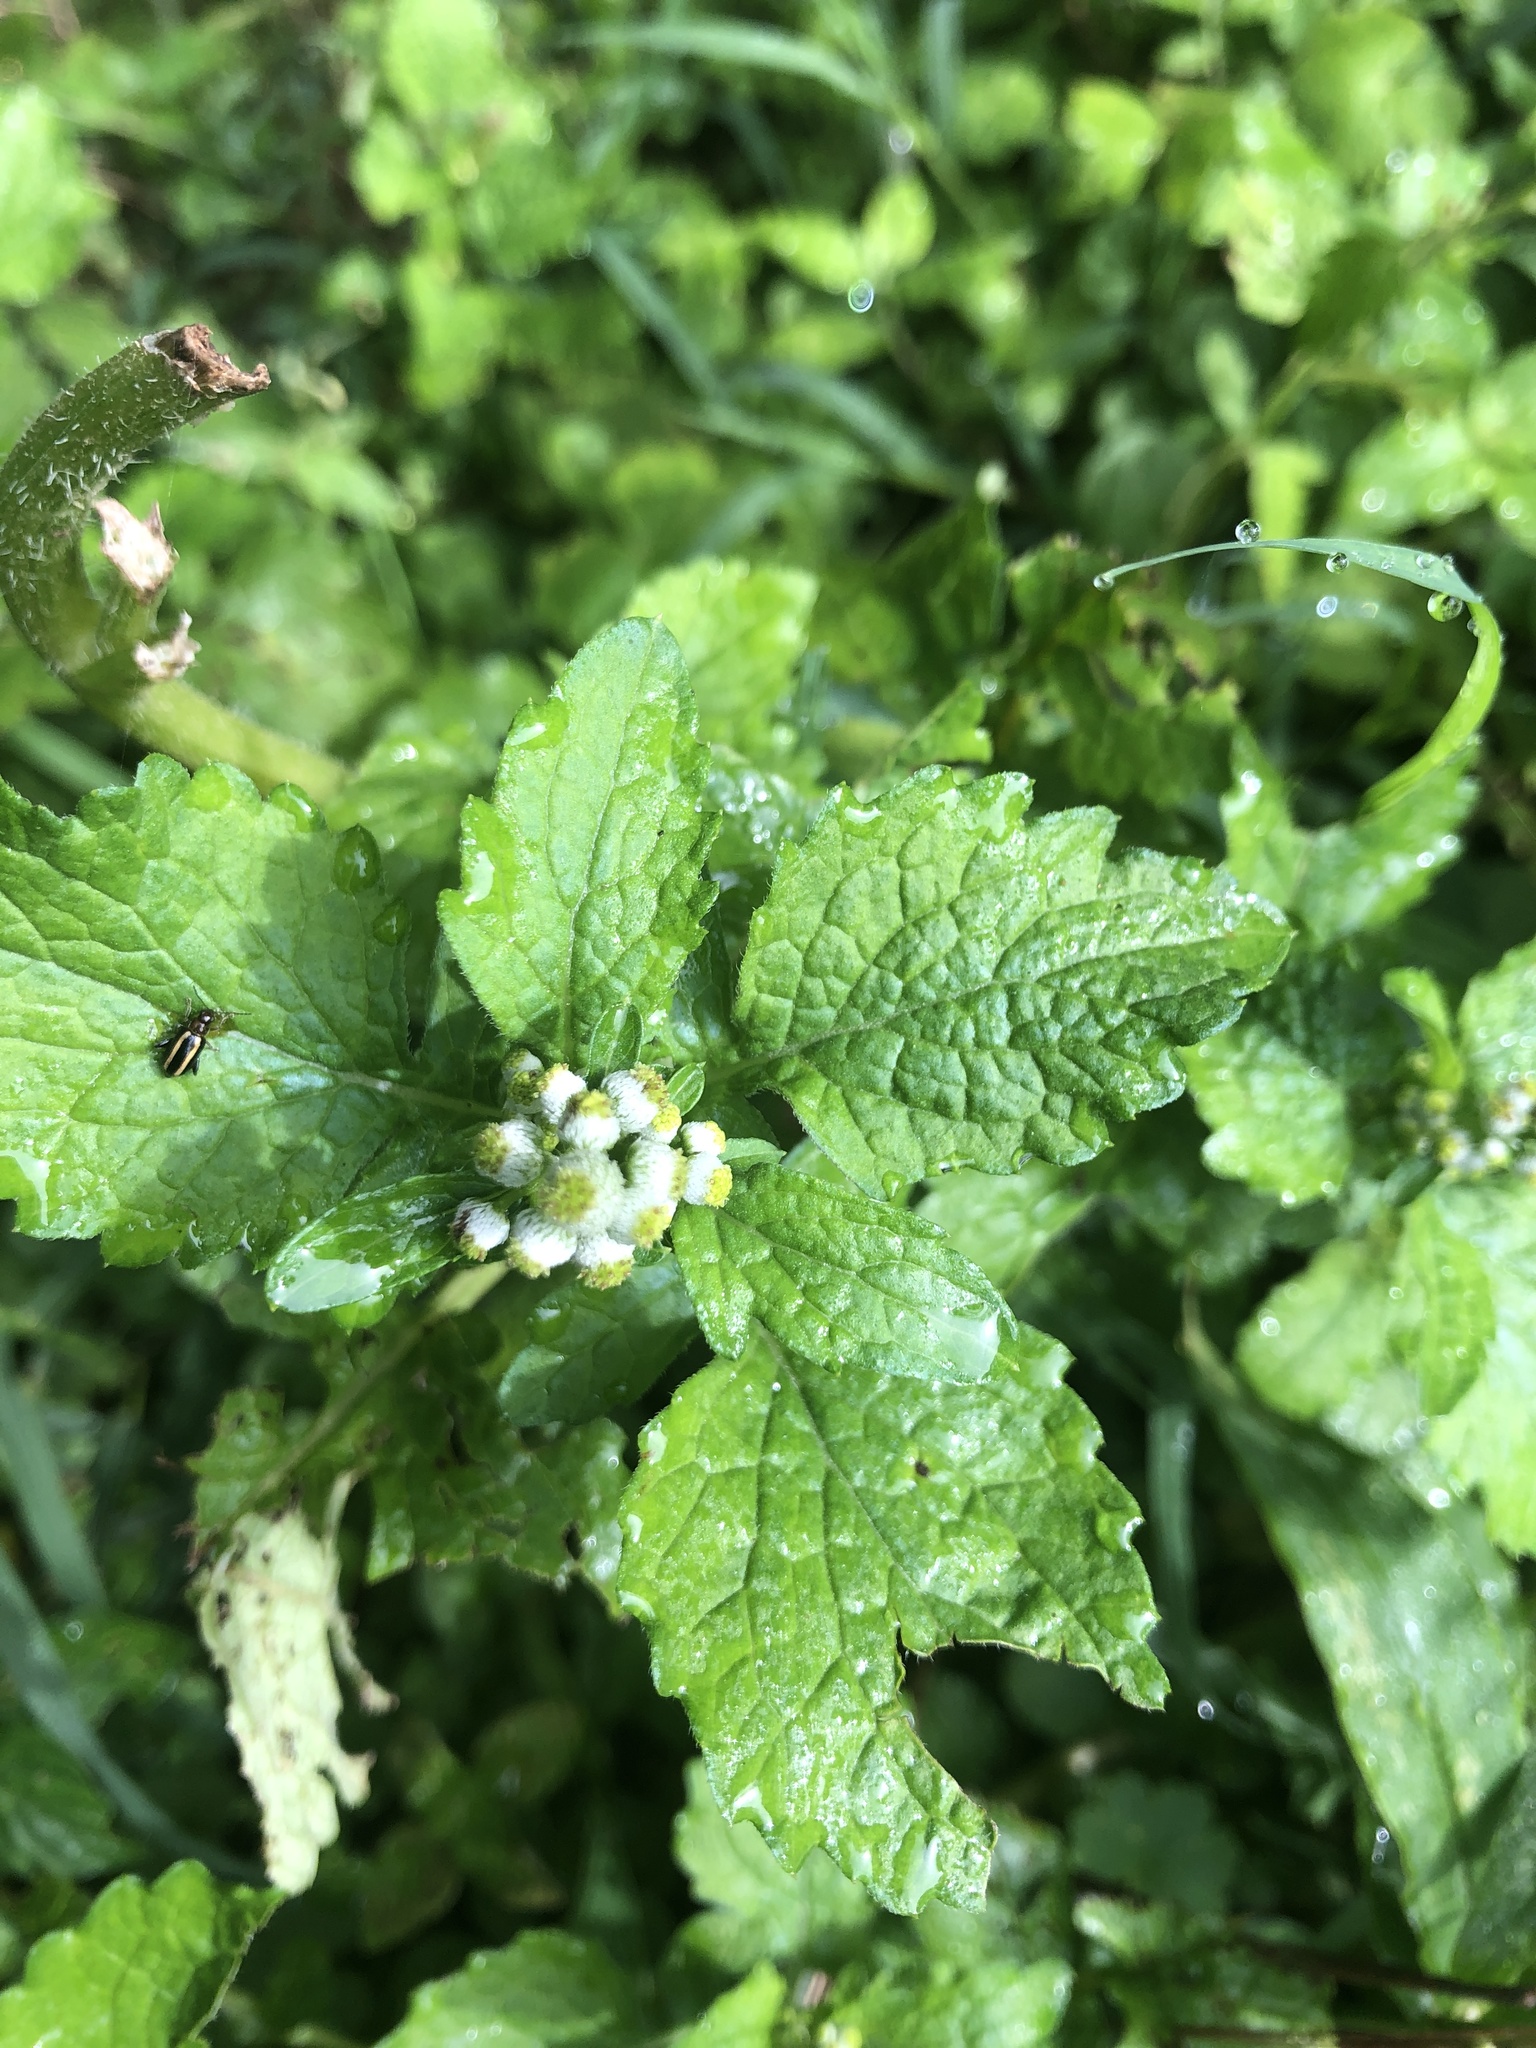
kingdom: Plantae
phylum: Tracheophyta
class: Magnoliopsida
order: Asterales
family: Asteraceae
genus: Dichrocephala
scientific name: Dichrocephala integrifolia
